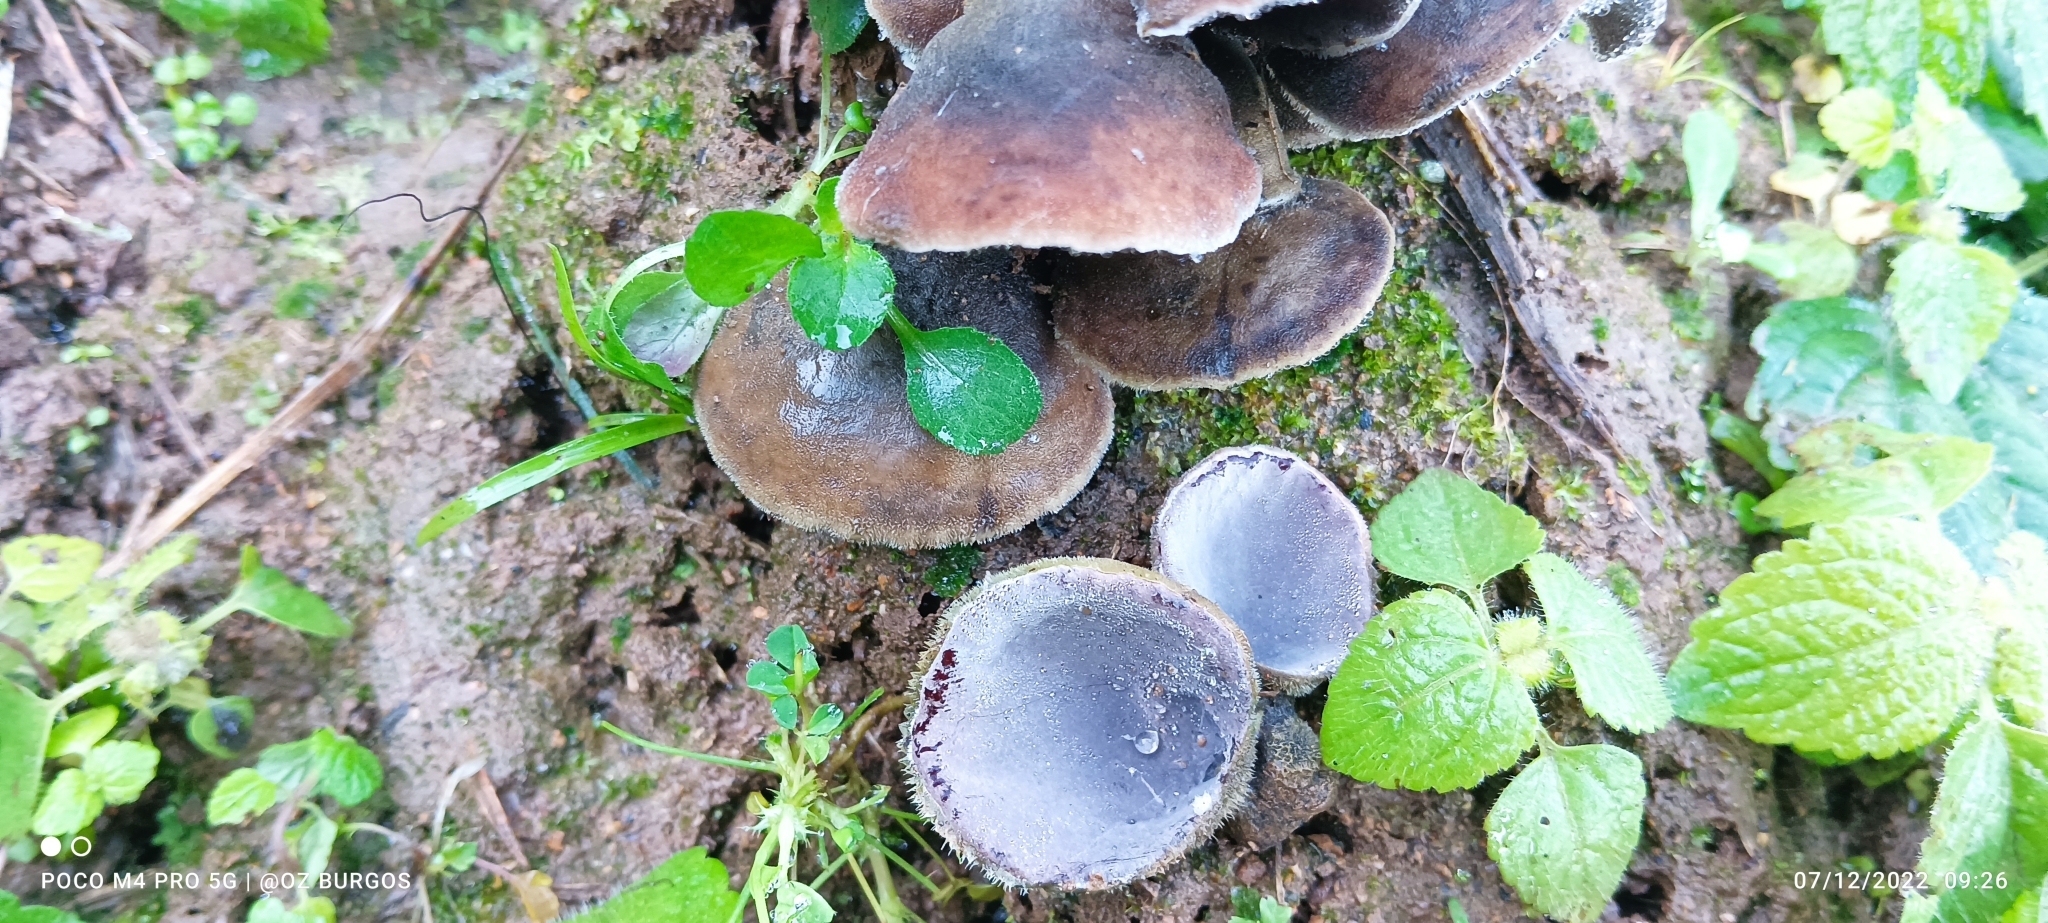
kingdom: Fungi
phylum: Basidiomycota
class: Agaricomycetes
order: Auriculariales
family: Auriculariaceae
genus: Auricularia
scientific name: Auricularia nigricans
